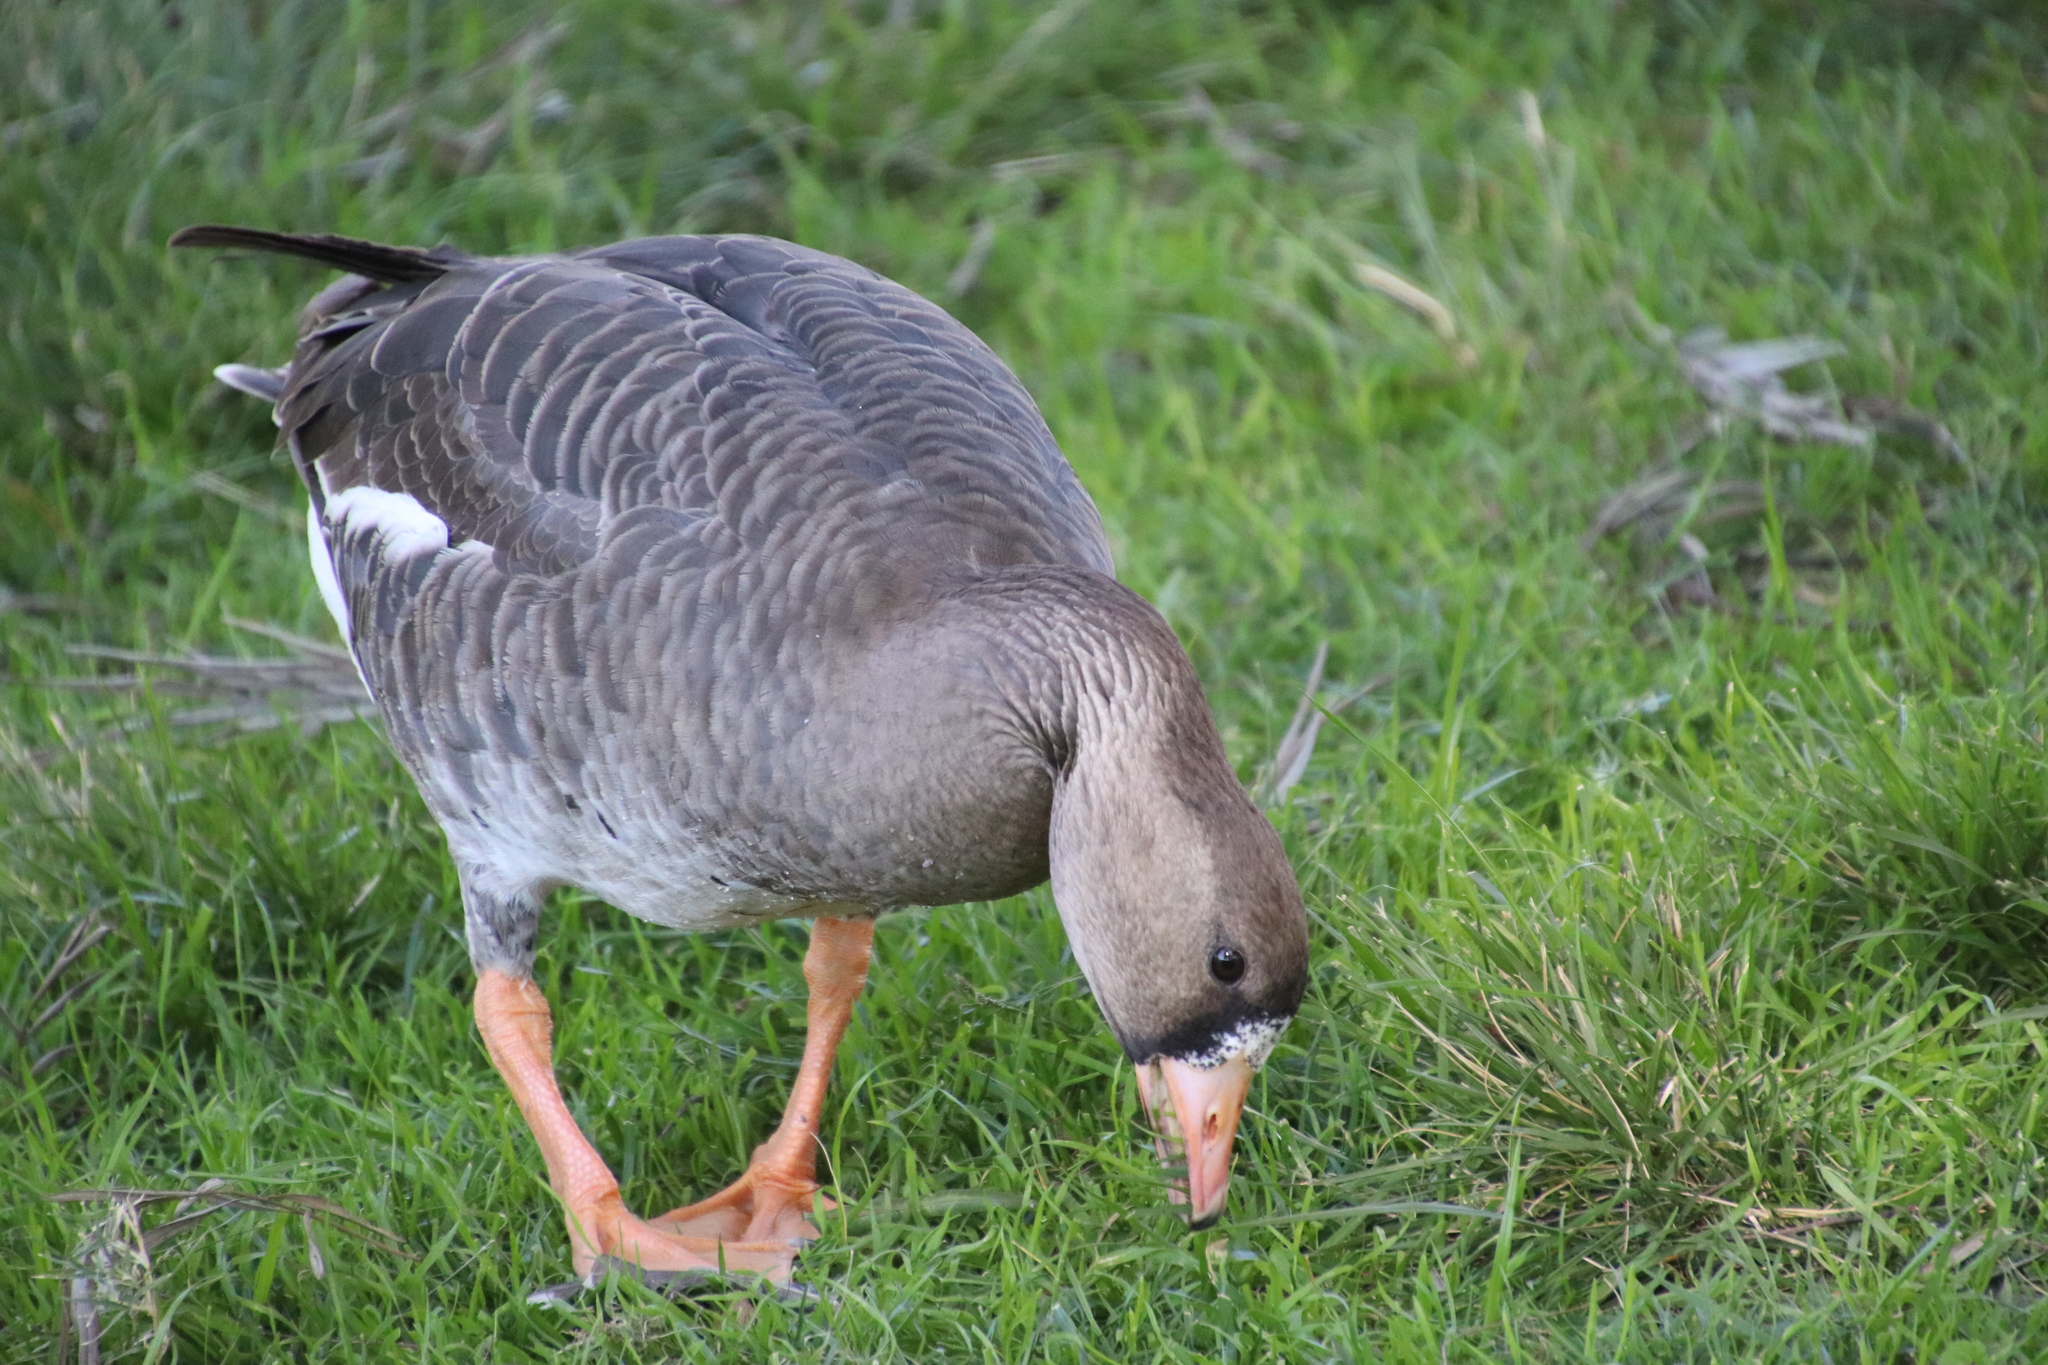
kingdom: Animalia
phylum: Chordata
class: Aves
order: Anseriformes
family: Anatidae
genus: Anser
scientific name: Anser albifrons
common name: Greater white-fronted goose
